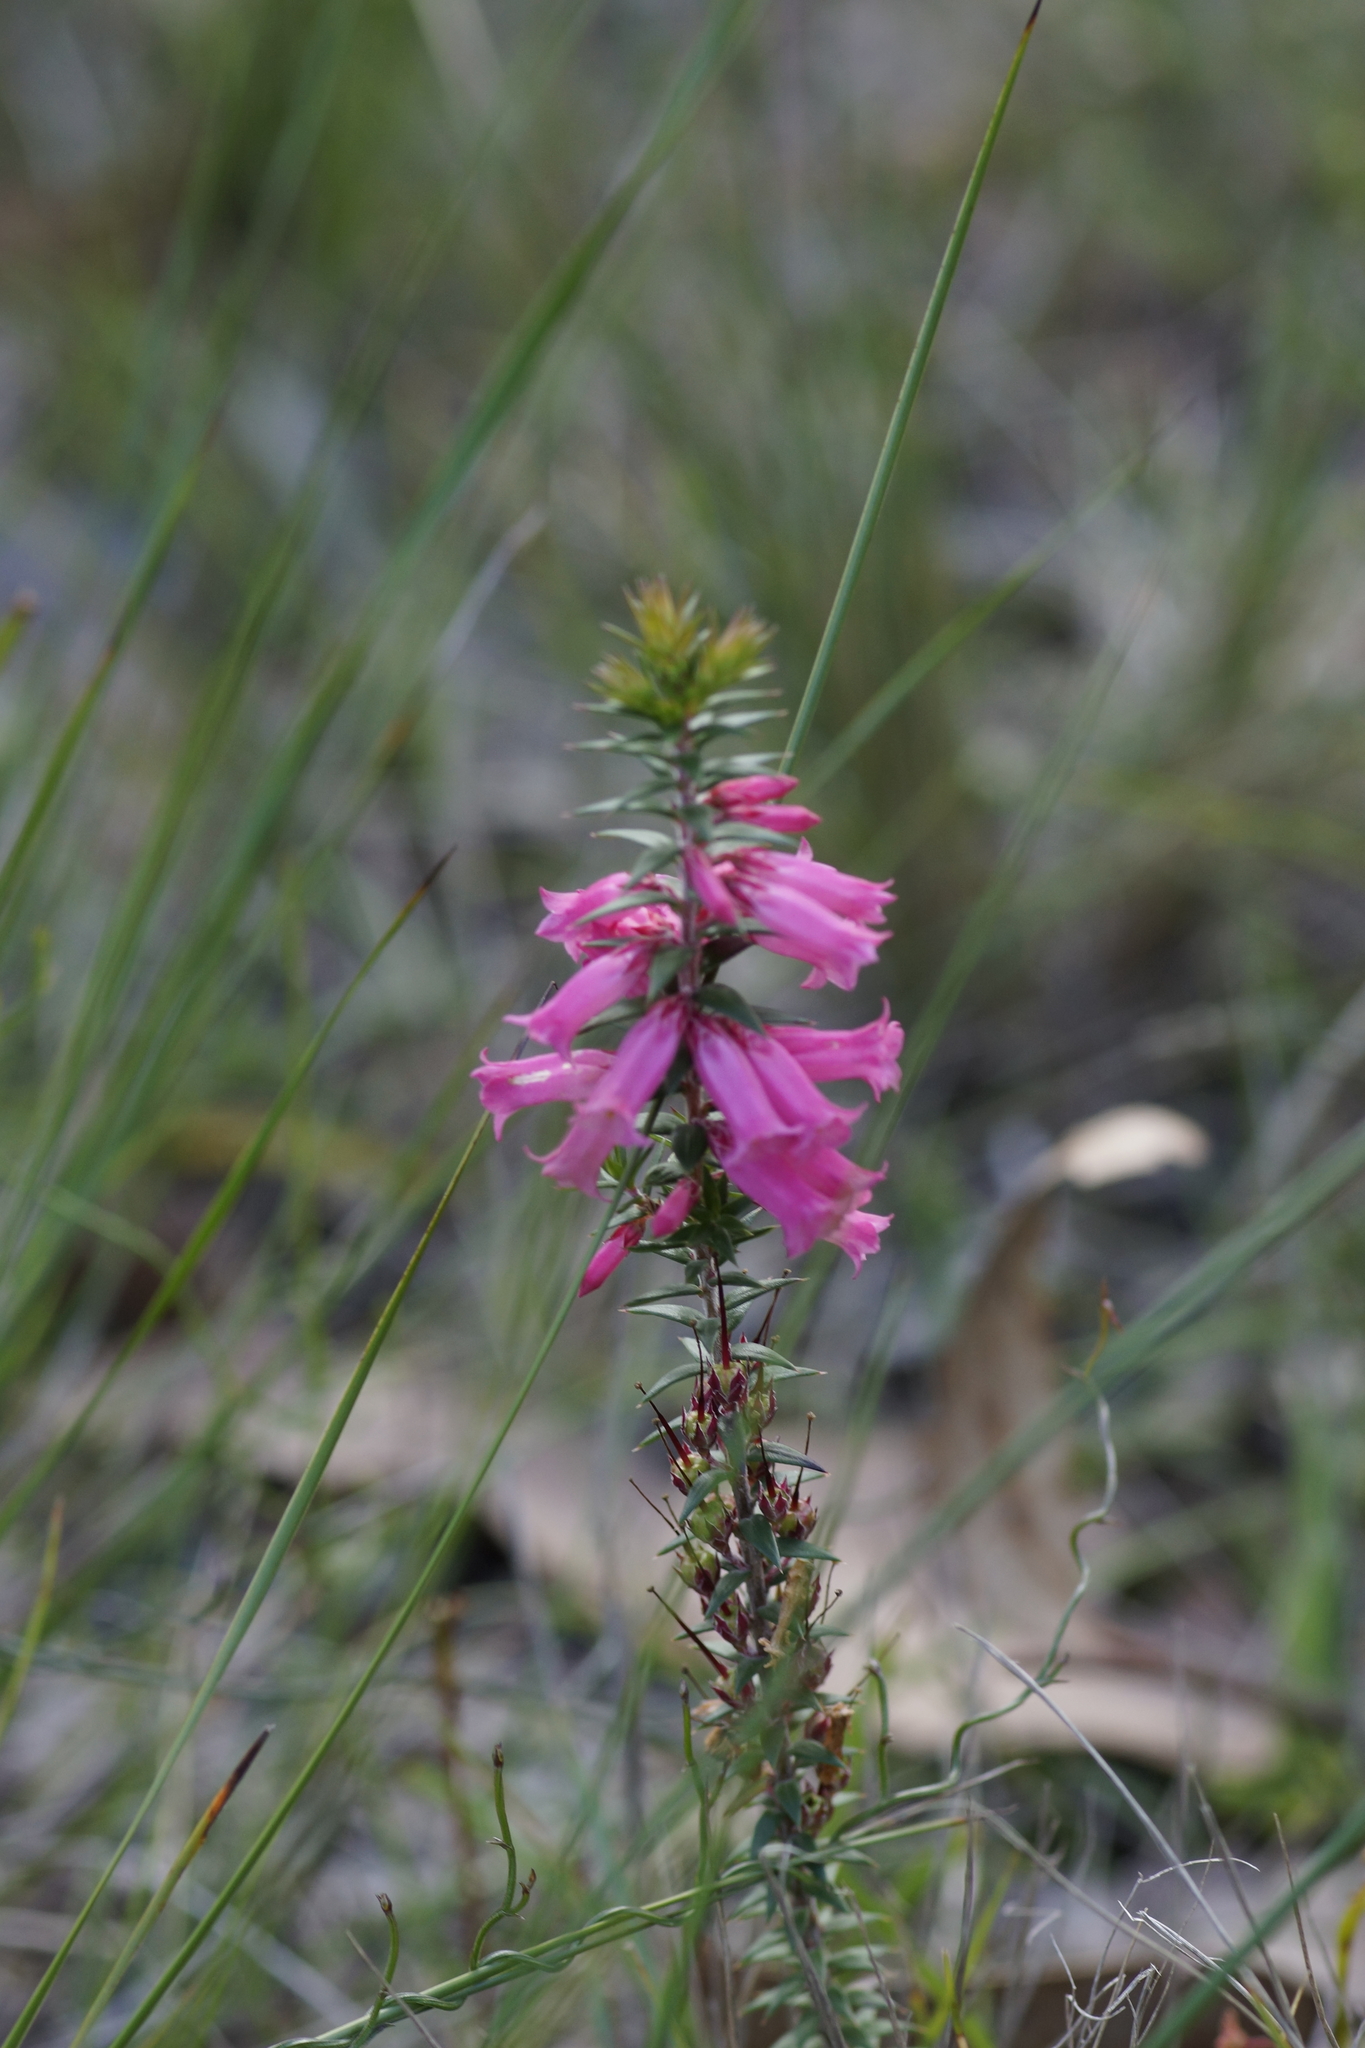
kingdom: Plantae
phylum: Tracheophyta
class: Magnoliopsida
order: Ericales
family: Ericaceae
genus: Epacris
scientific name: Epacris impressa
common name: Common-heath
